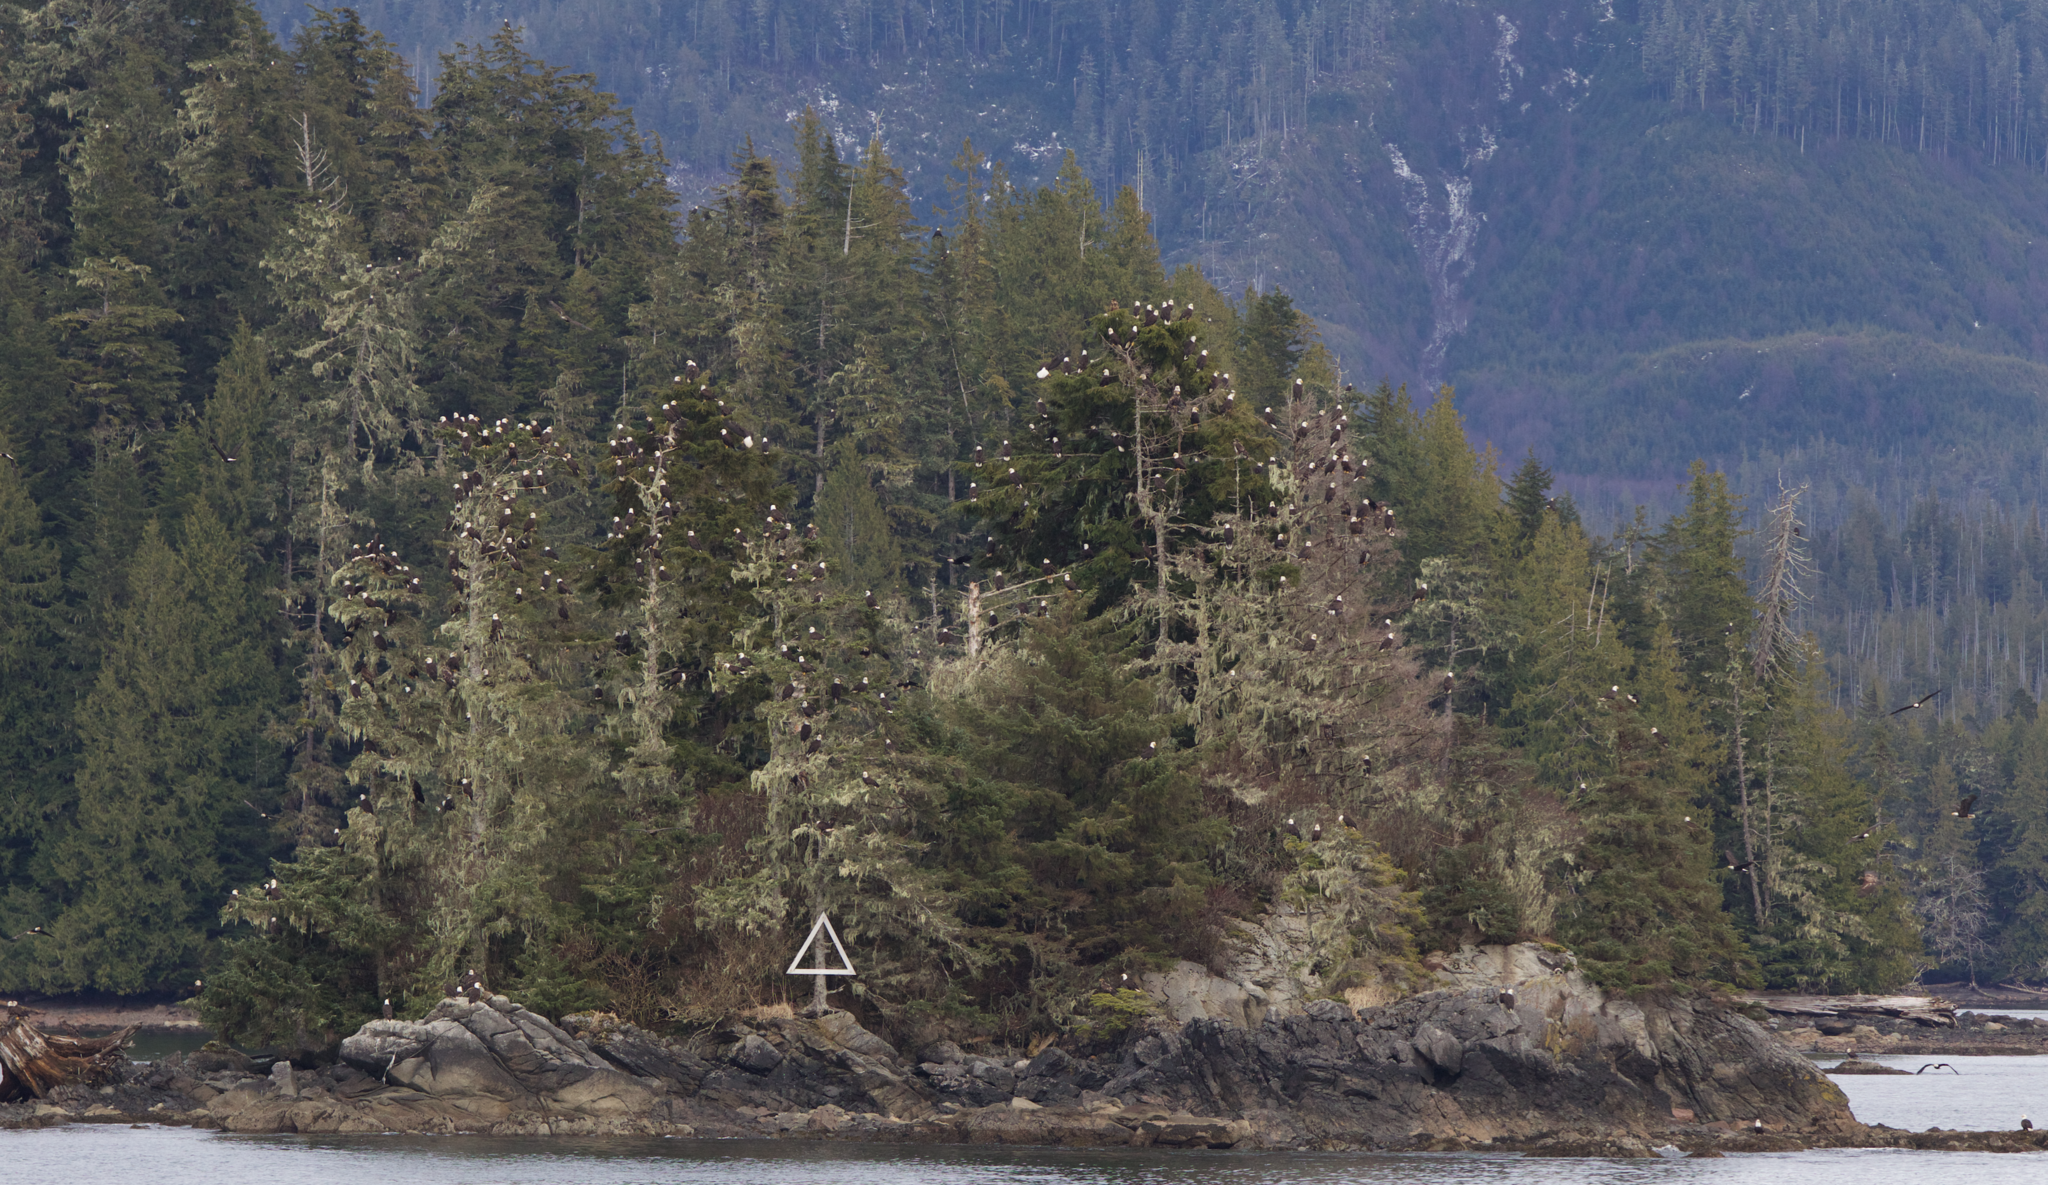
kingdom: Animalia
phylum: Chordata
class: Aves
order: Accipitriformes
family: Accipitridae
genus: Haliaeetus
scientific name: Haliaeetus leucocephalus
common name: Bald eagle
